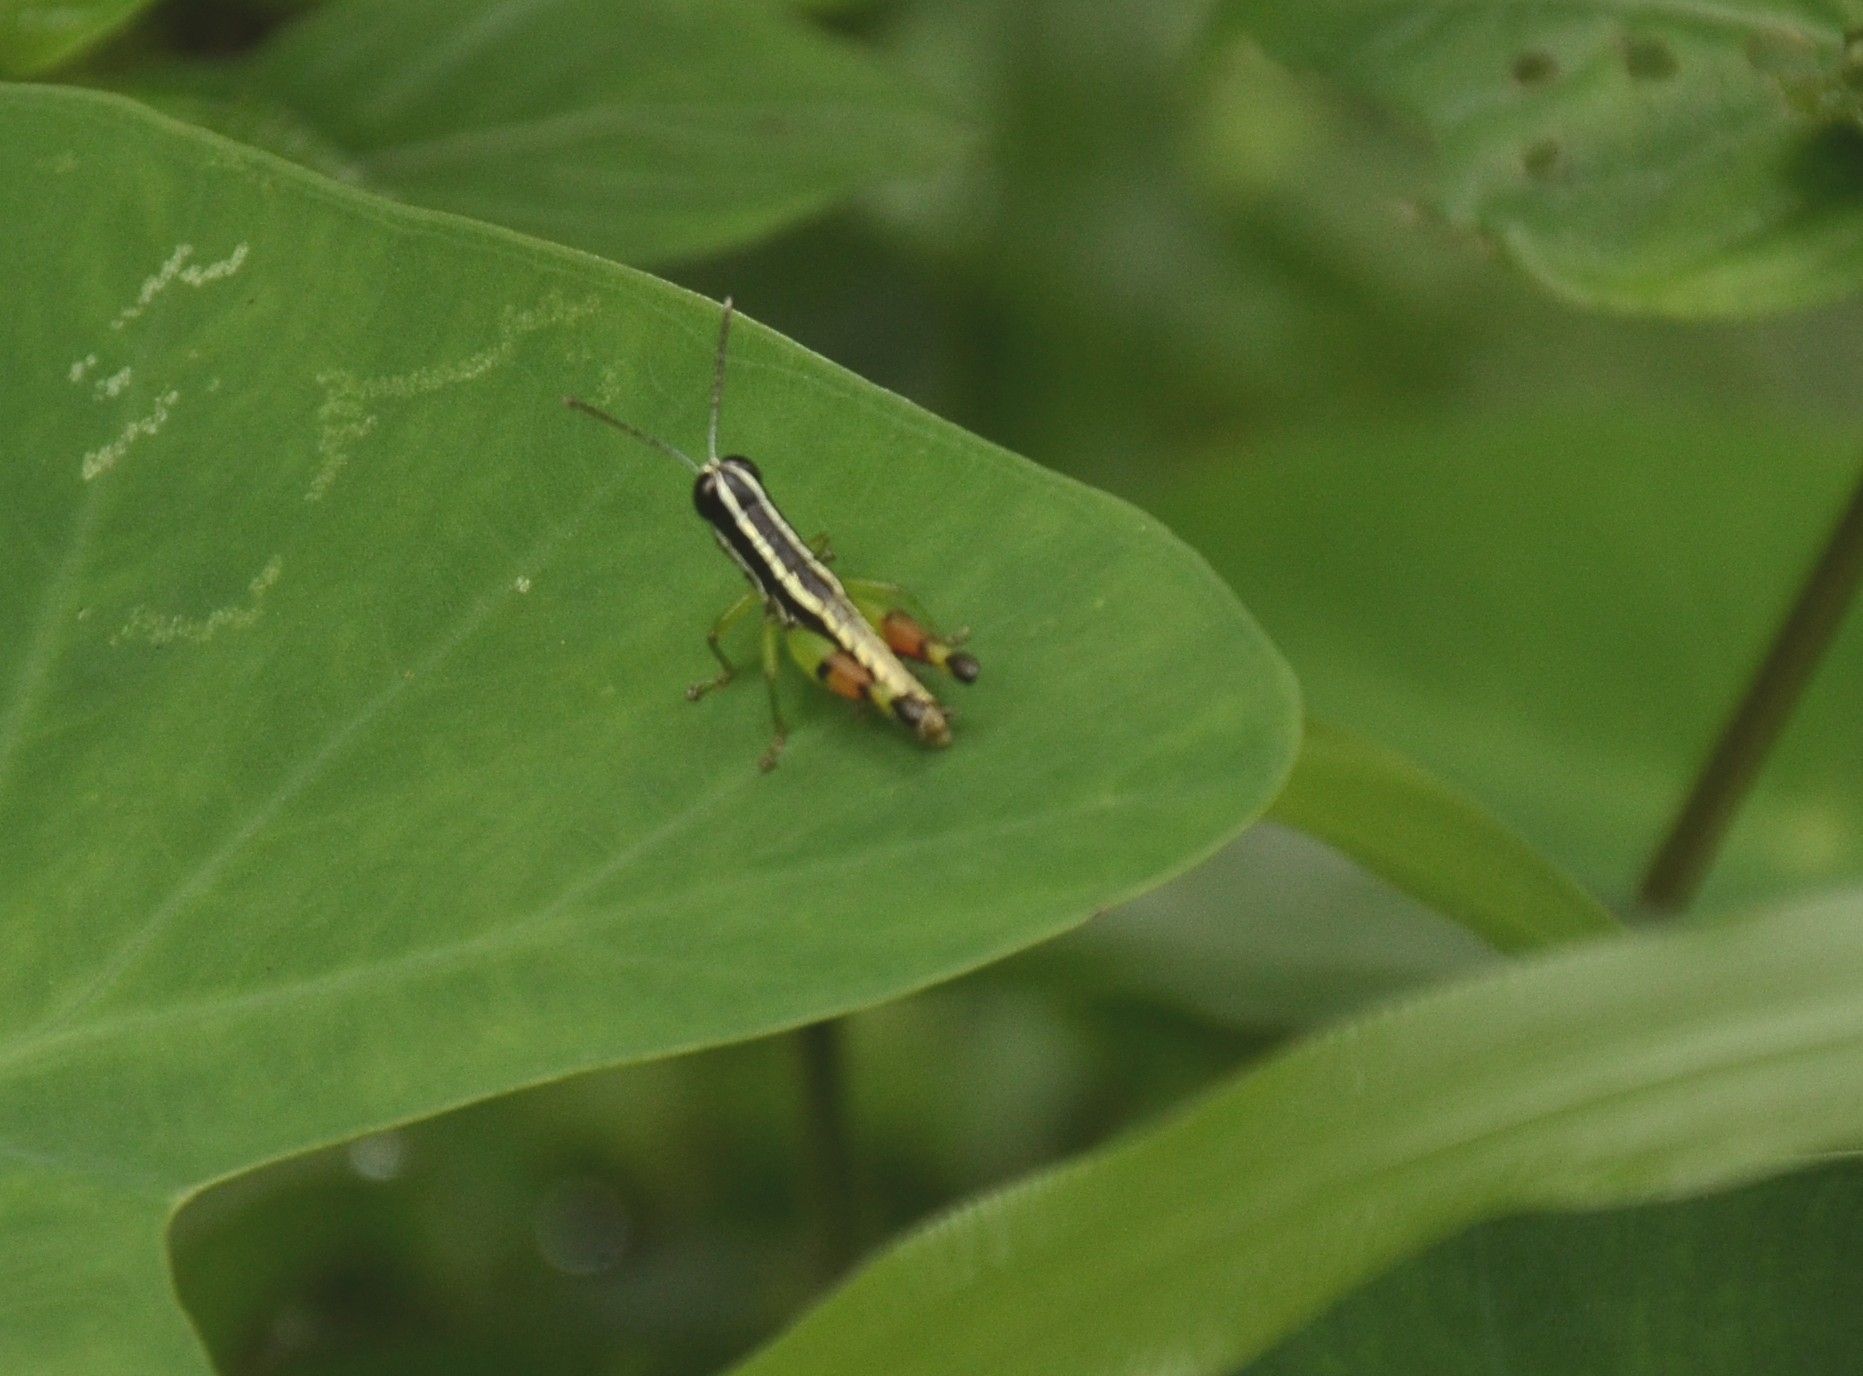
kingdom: Animalia
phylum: Arthropoda
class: Insecta
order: Orthoptera
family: Acrididae
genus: Chitaura
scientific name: Chitaura indica
